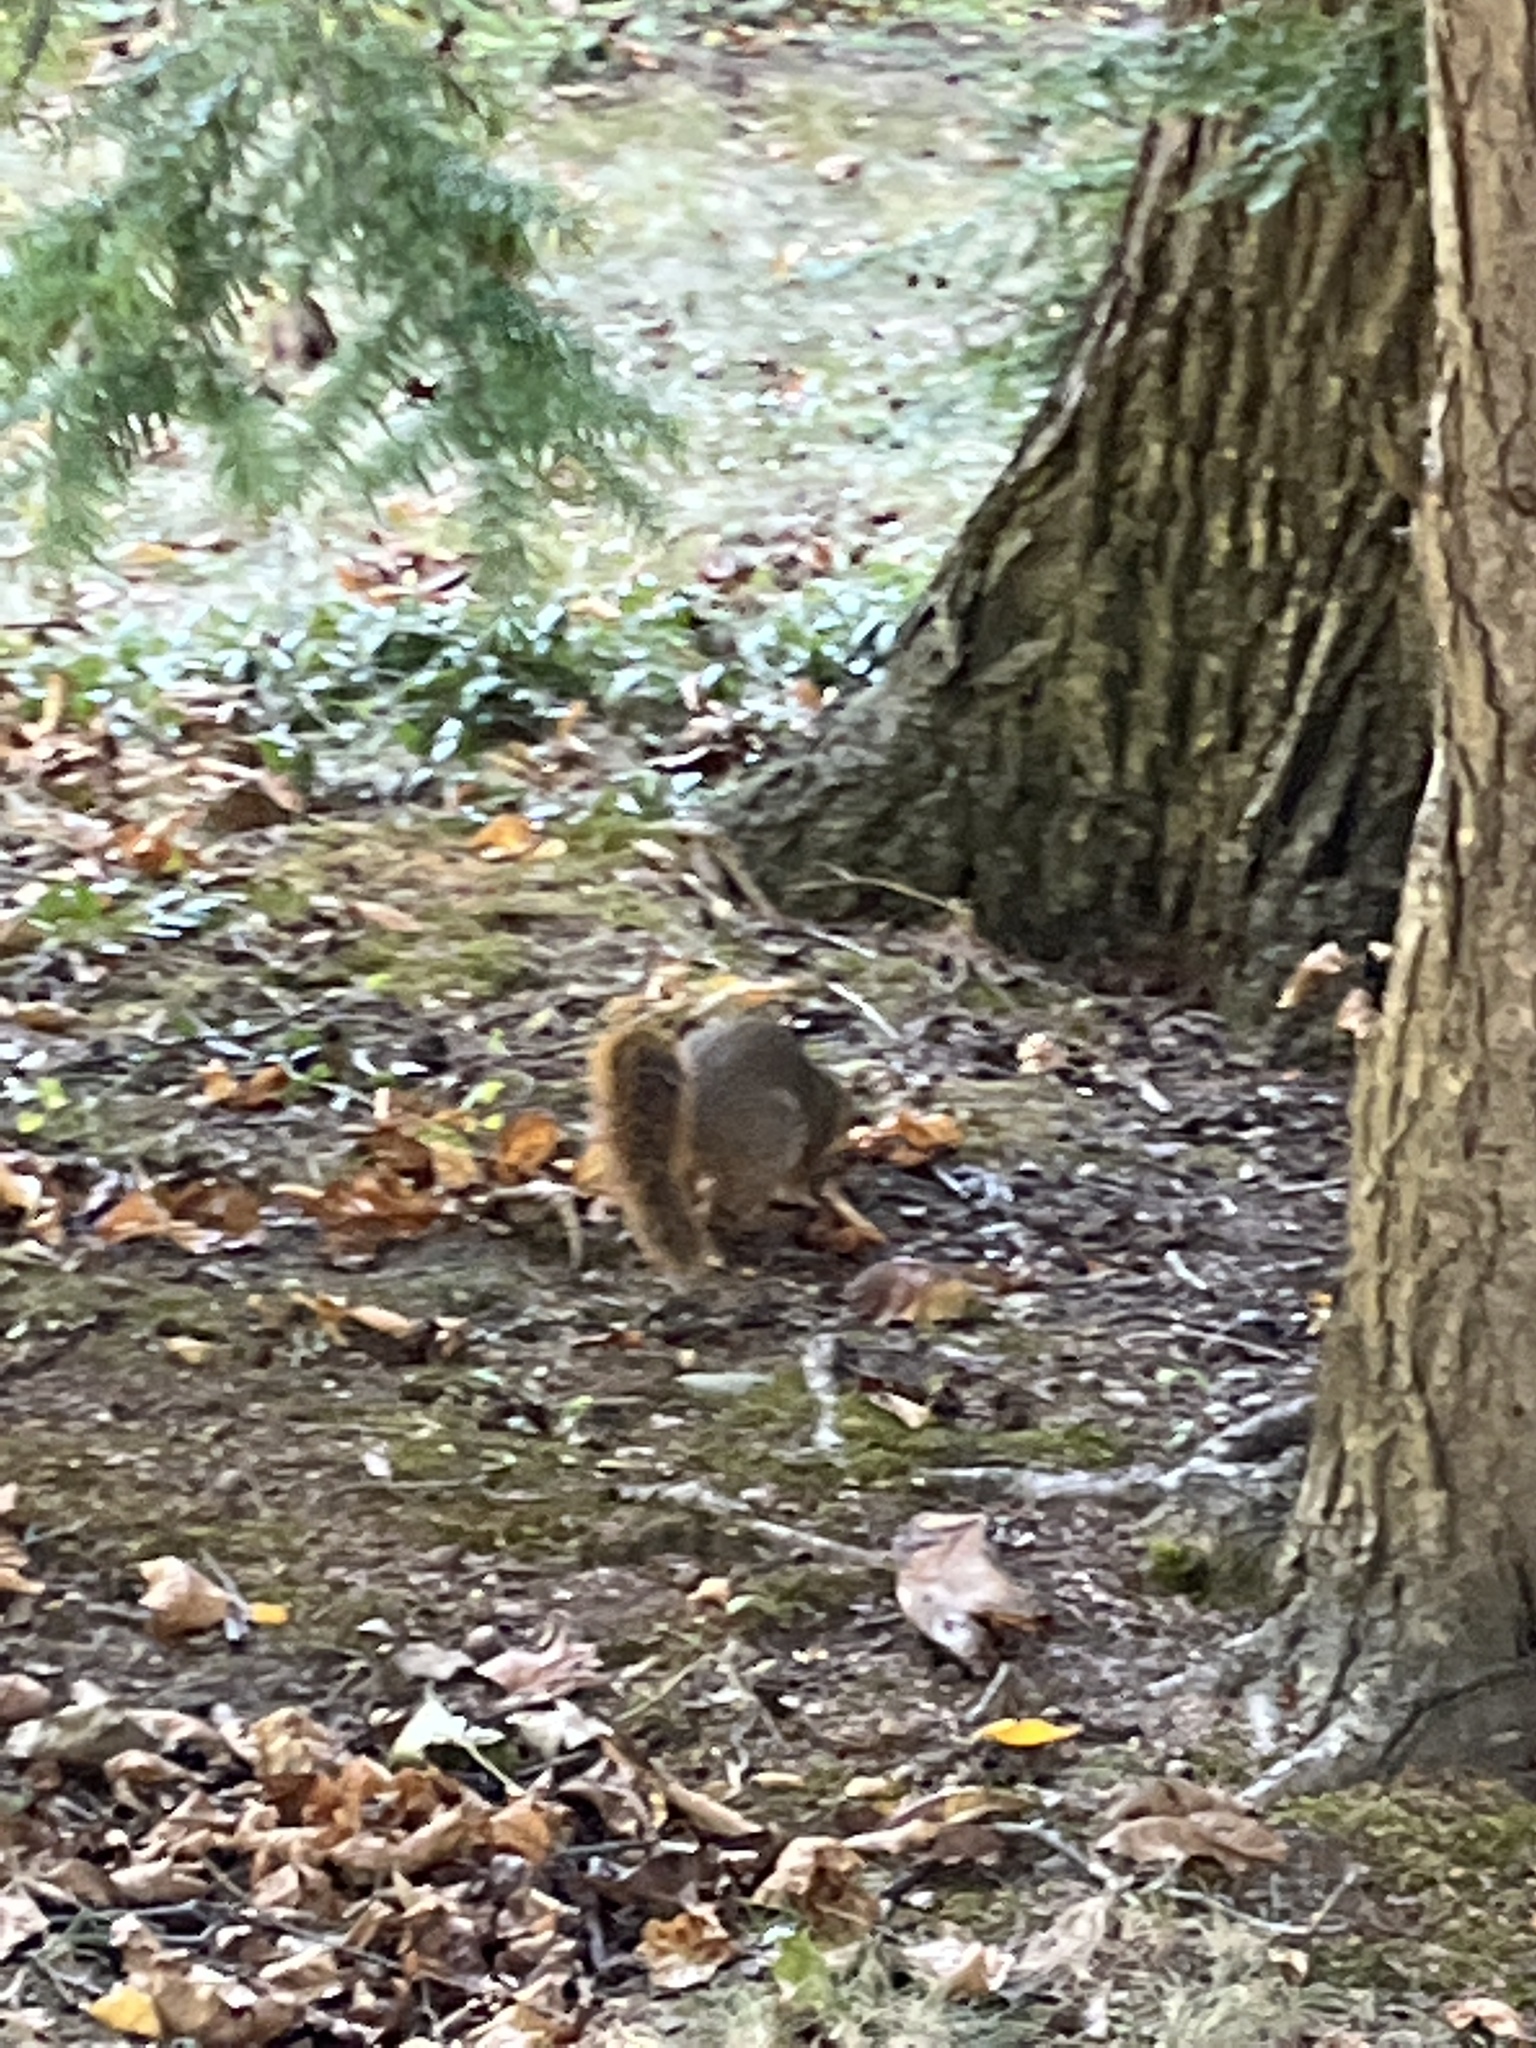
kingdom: Animalia
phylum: Chordata
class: Mammalia
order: Rodentia
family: Sciuridae
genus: Sciurus
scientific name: Sciurus niger
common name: Fox squirrel
